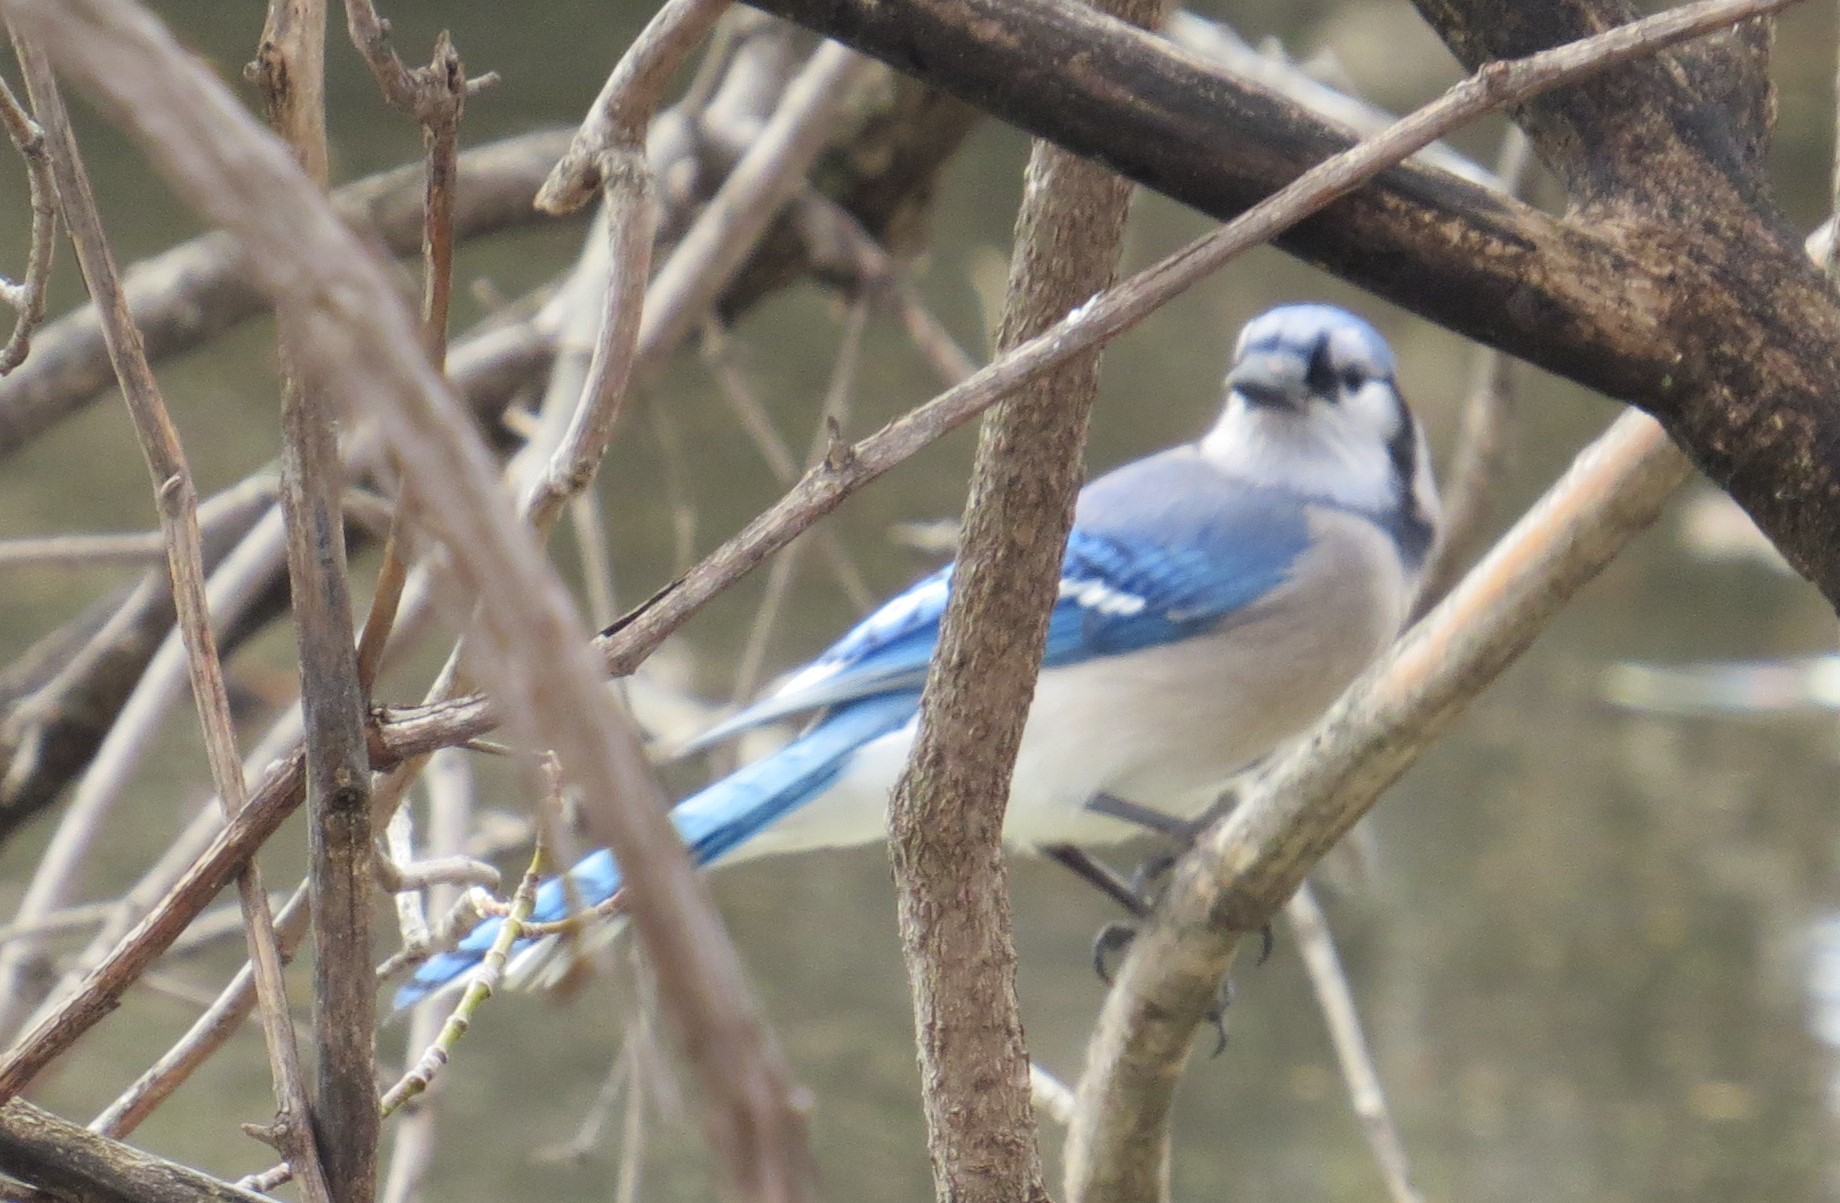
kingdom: Animalia
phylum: Chordata
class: Aves
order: Passeriformes
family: Corvidae
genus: Cyanocitta
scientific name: Cyanocitta cristata
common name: Blue jay
